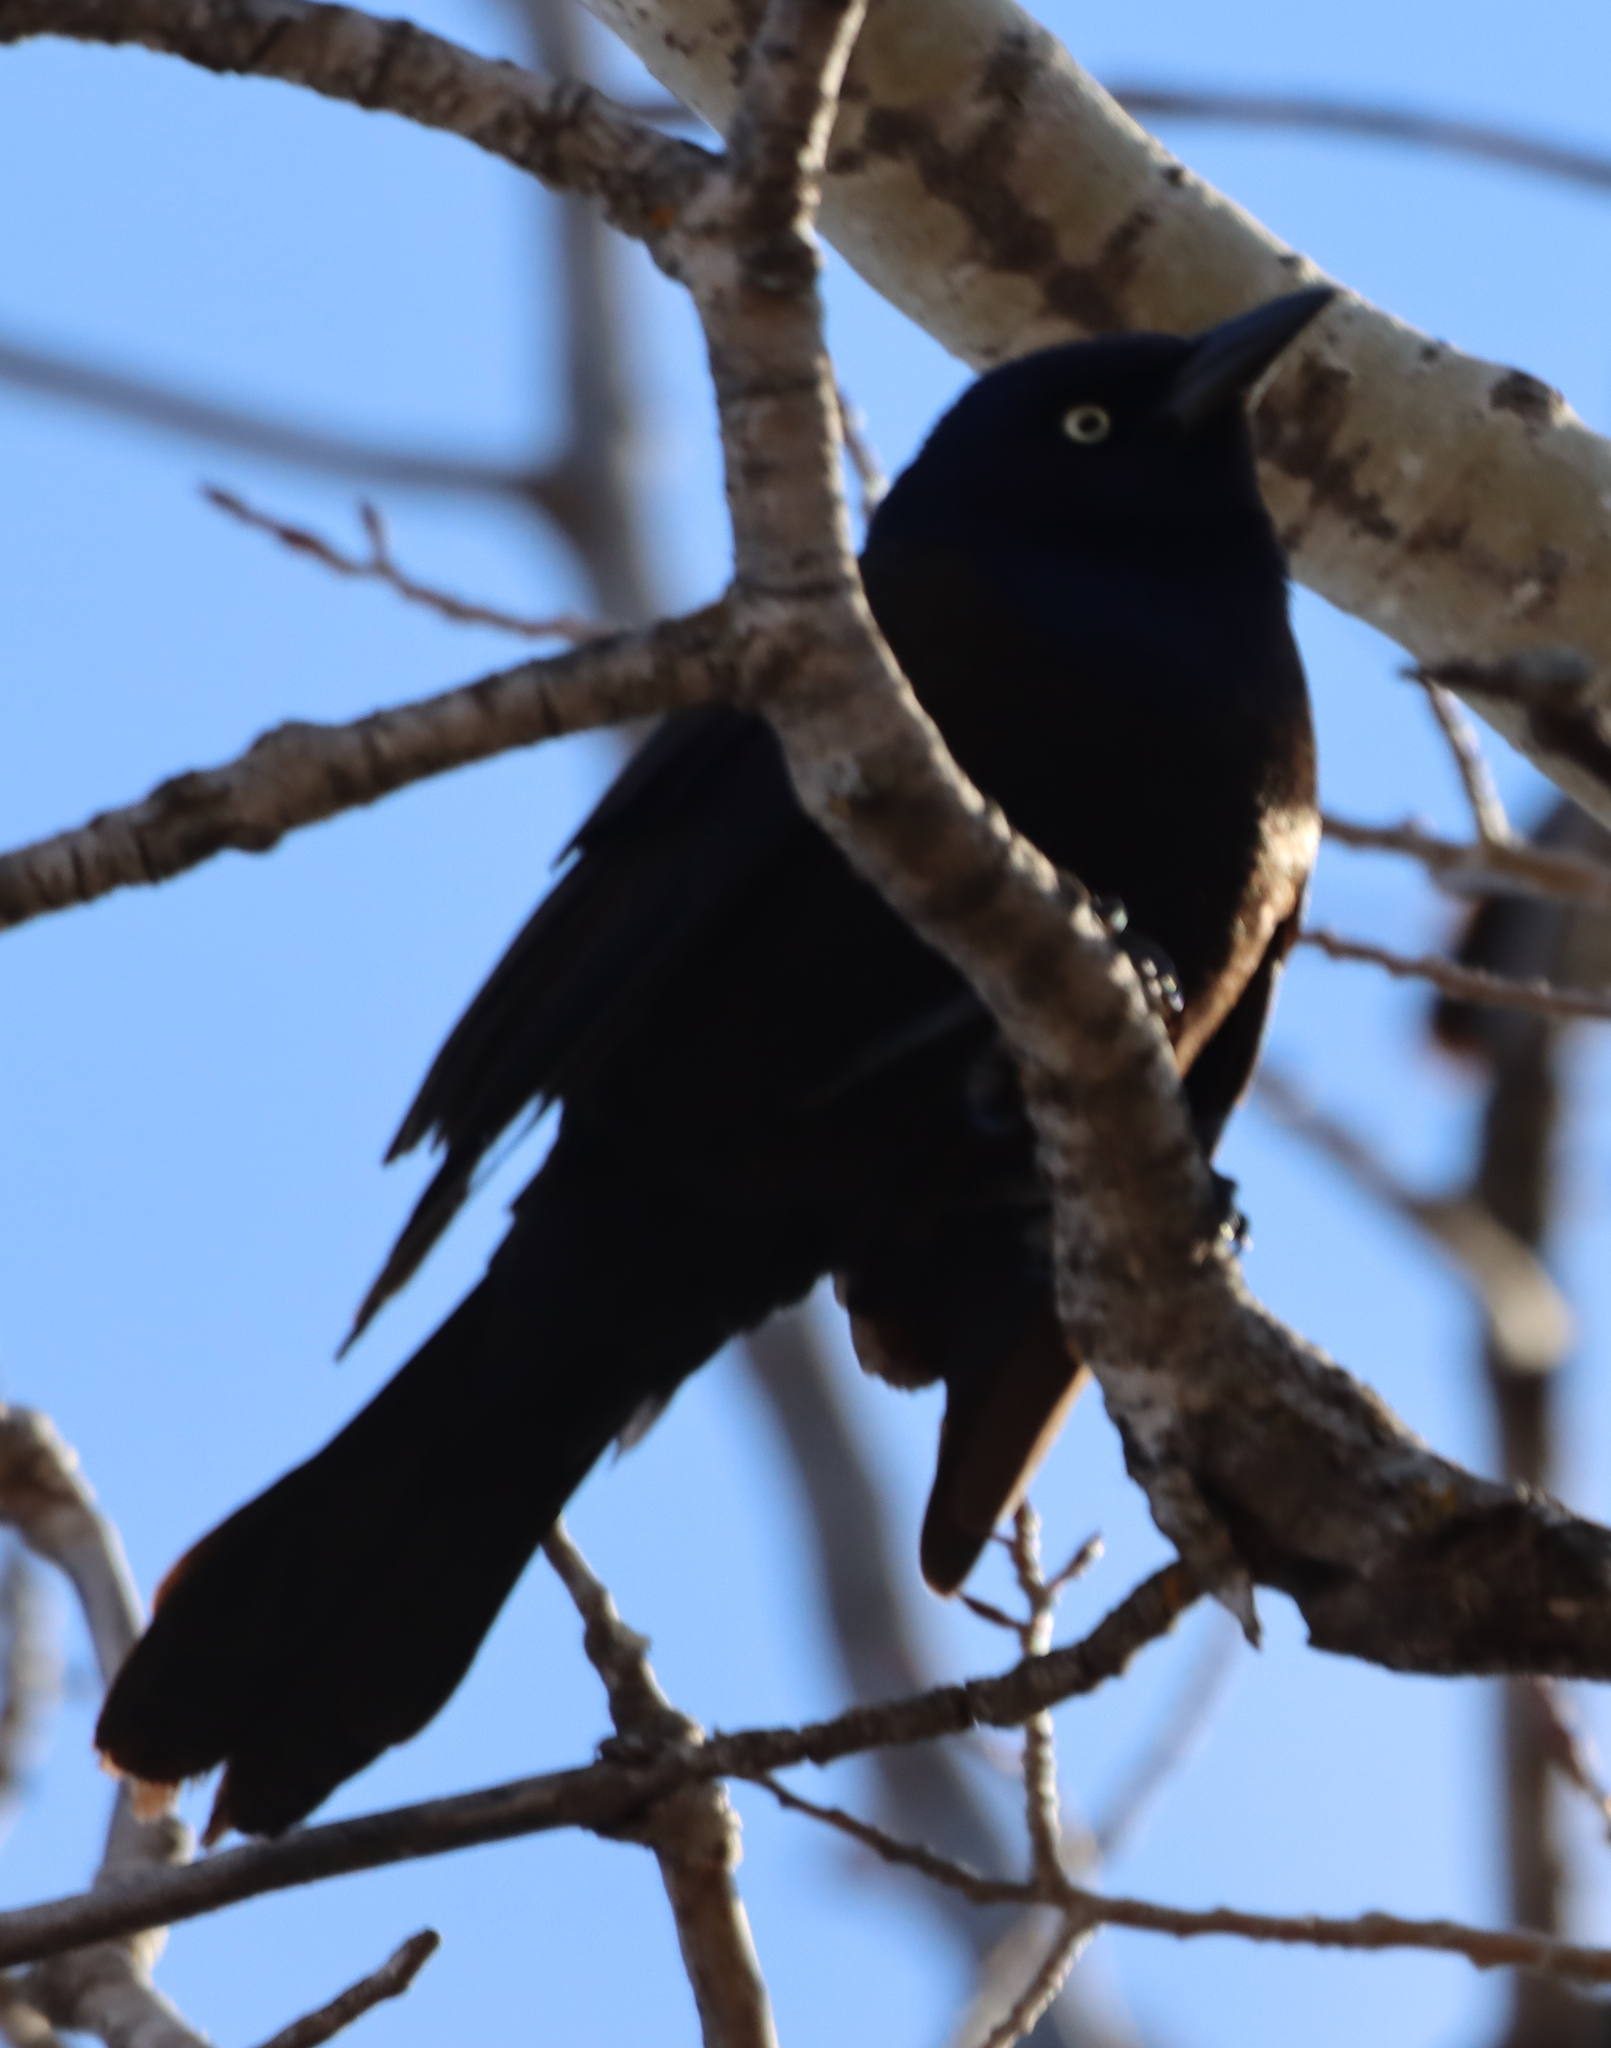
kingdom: Animalia
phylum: Chordata
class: Aves
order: Passeriformes
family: Icteridae
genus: Quiscalus
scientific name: Quiscalus quiscula
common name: Common grackle
